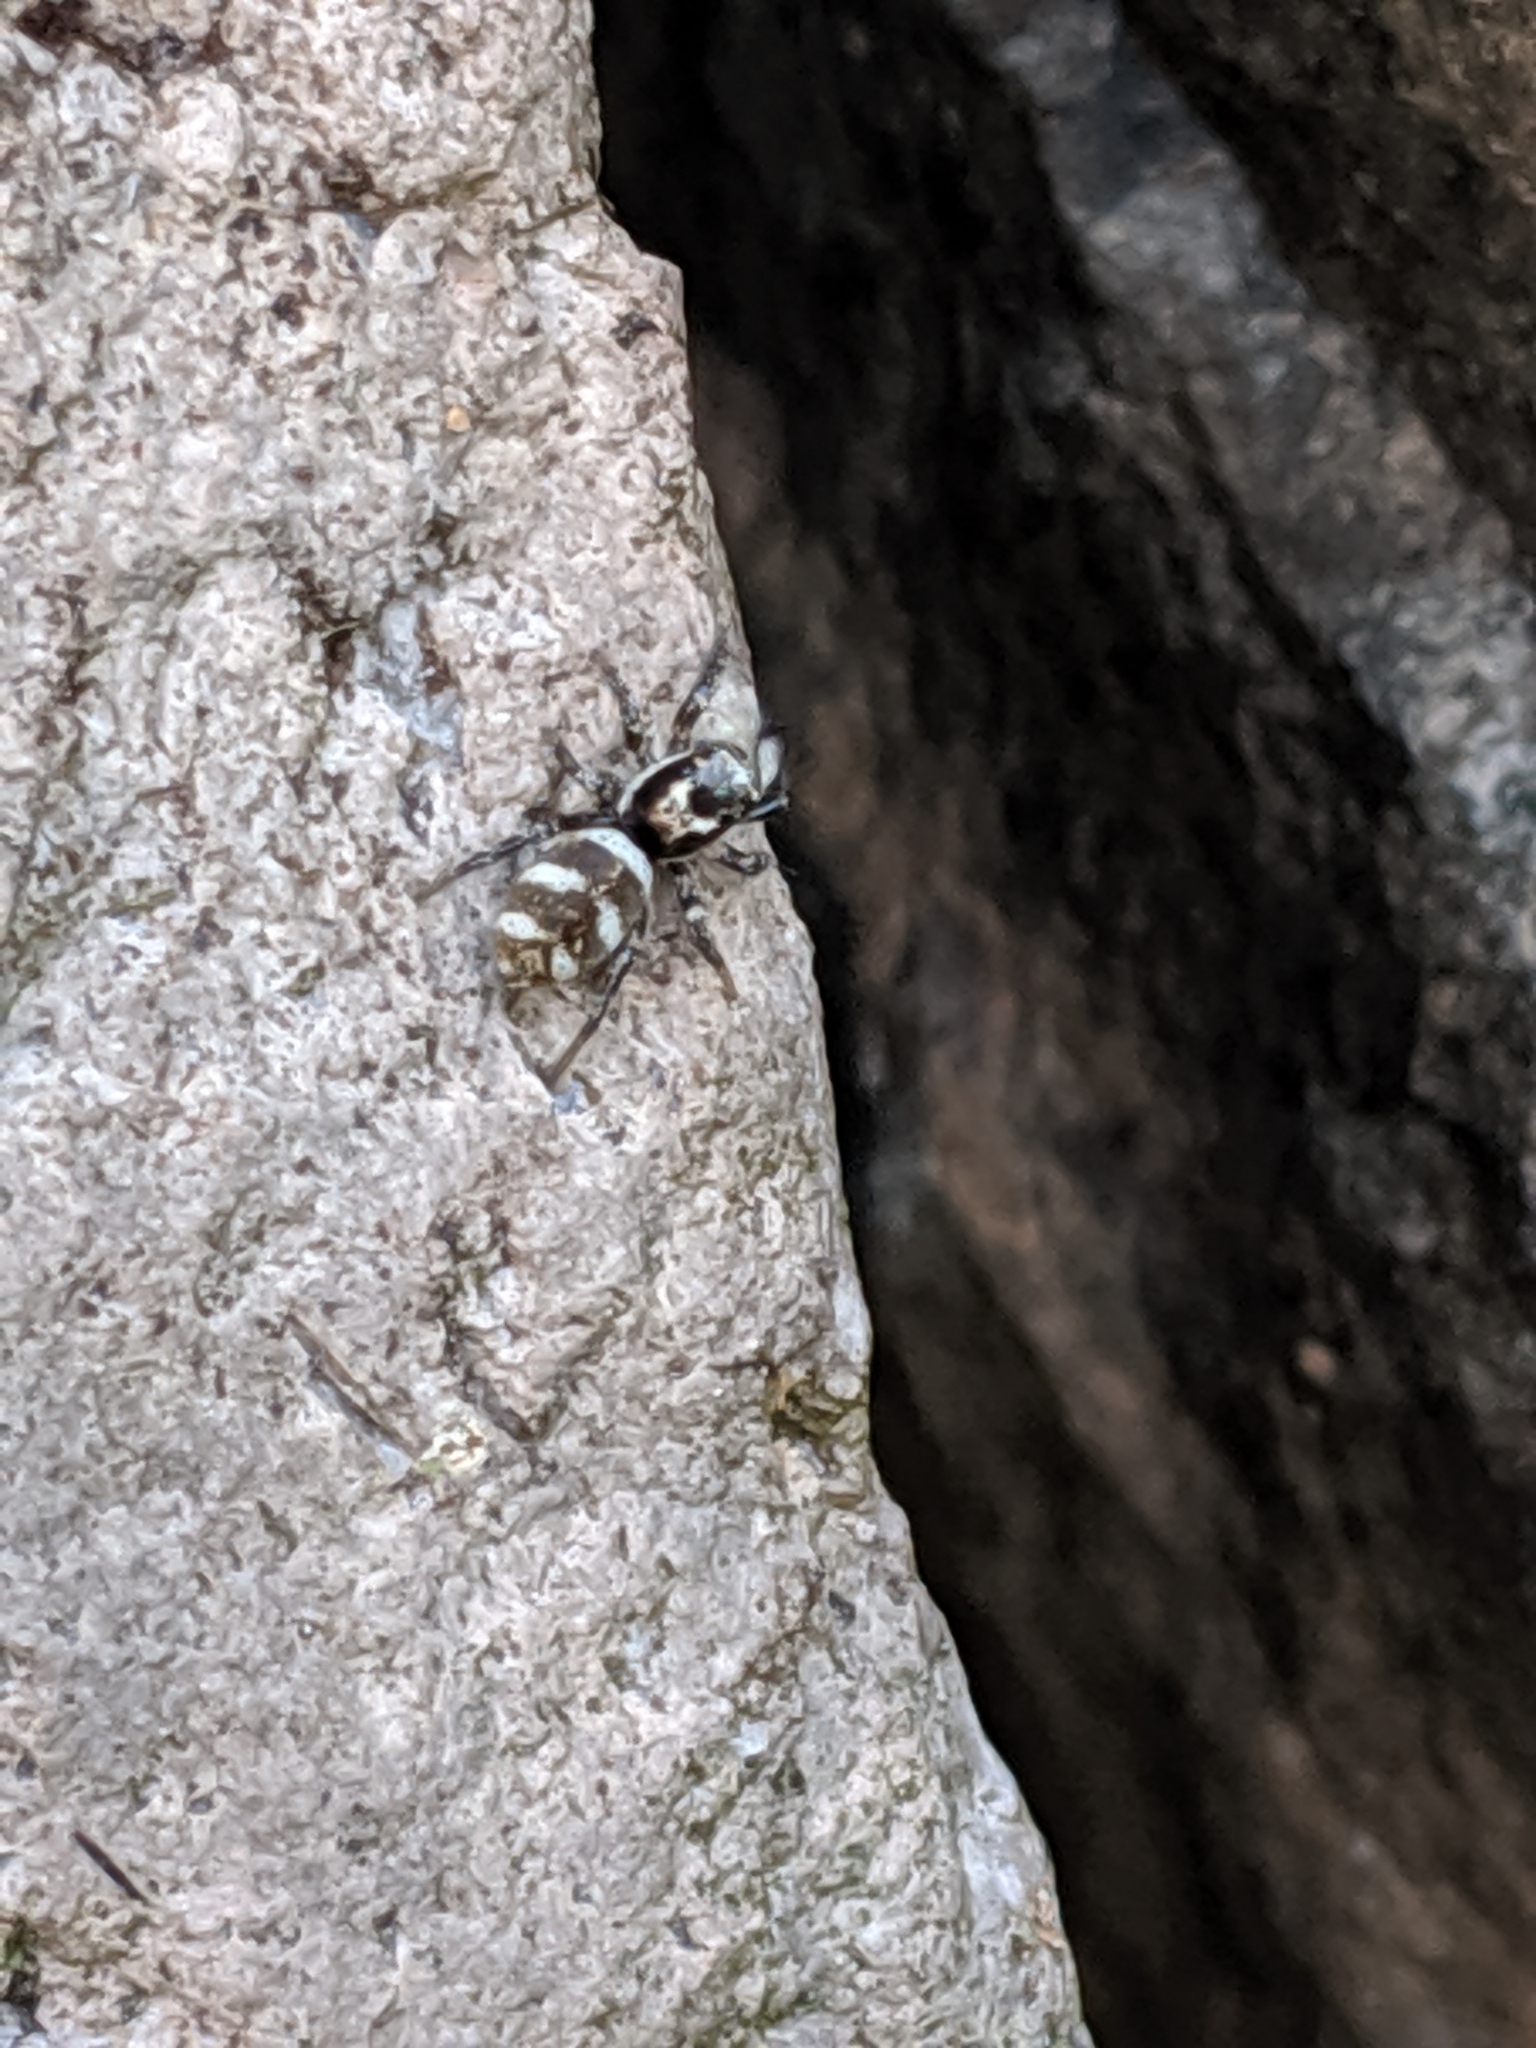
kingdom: Animalia
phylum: Arthropoda
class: Arachnida
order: Araneae
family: Salticidae
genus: Salticus
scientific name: Salticus scenicus
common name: Zebra jumper
